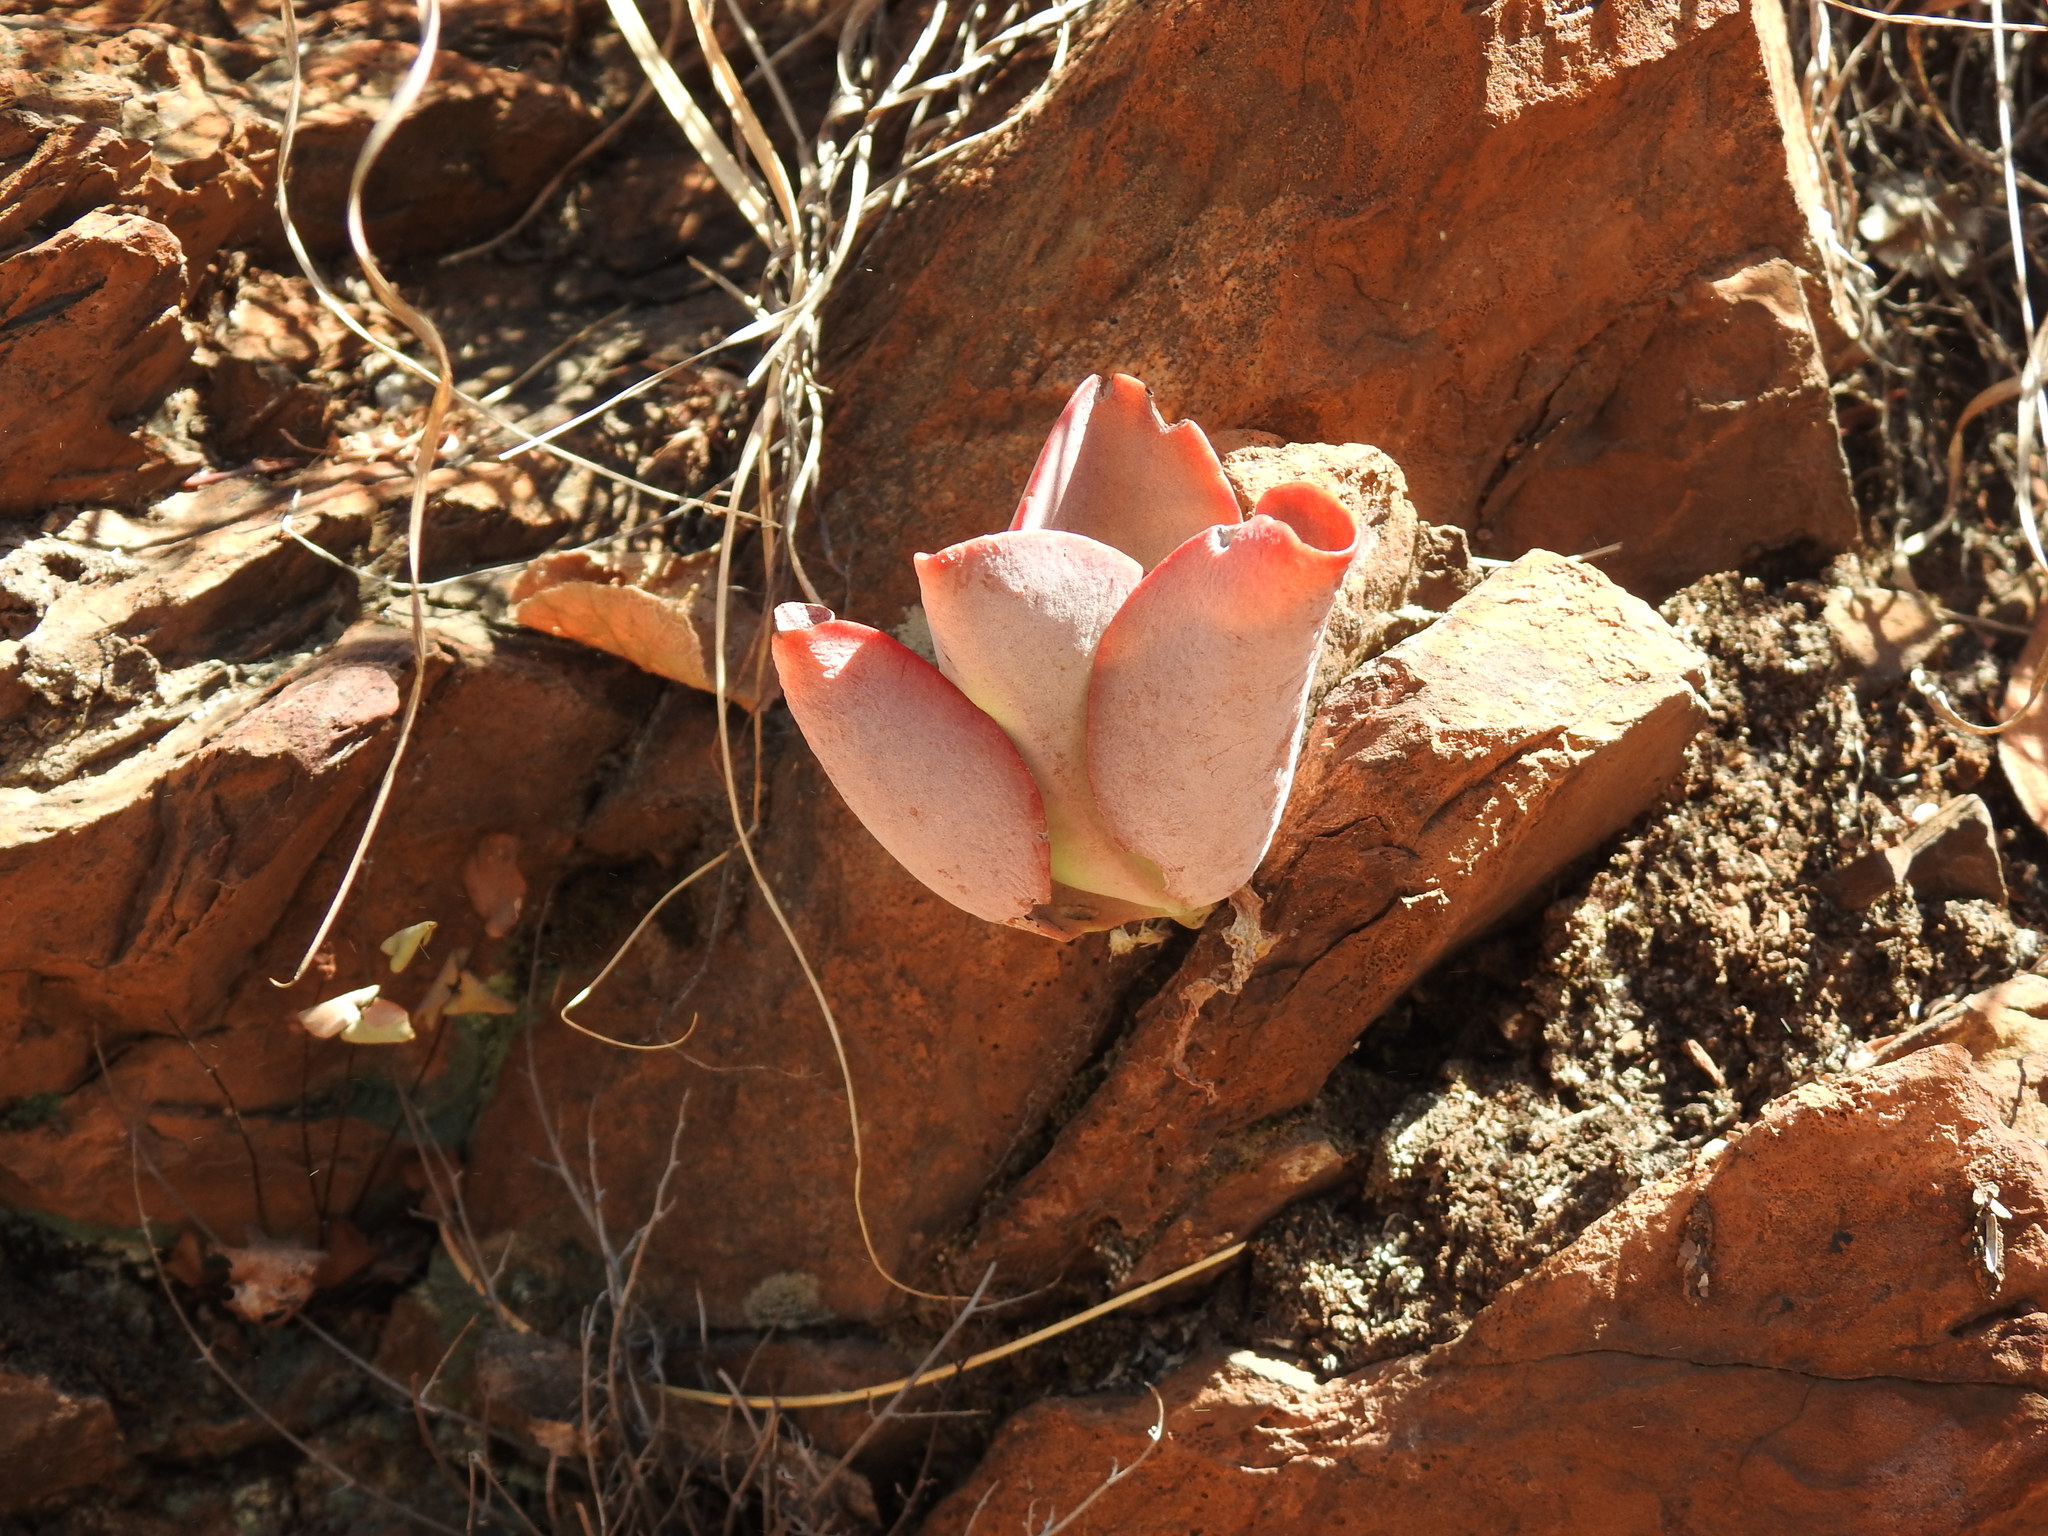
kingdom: Plantae
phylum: Tracheophyta
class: Magnoliopsida
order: Saxifragales
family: Crassulaceae
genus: Kalanchoe
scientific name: Kalanchoe rotundifolia
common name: Common kalanchoe
